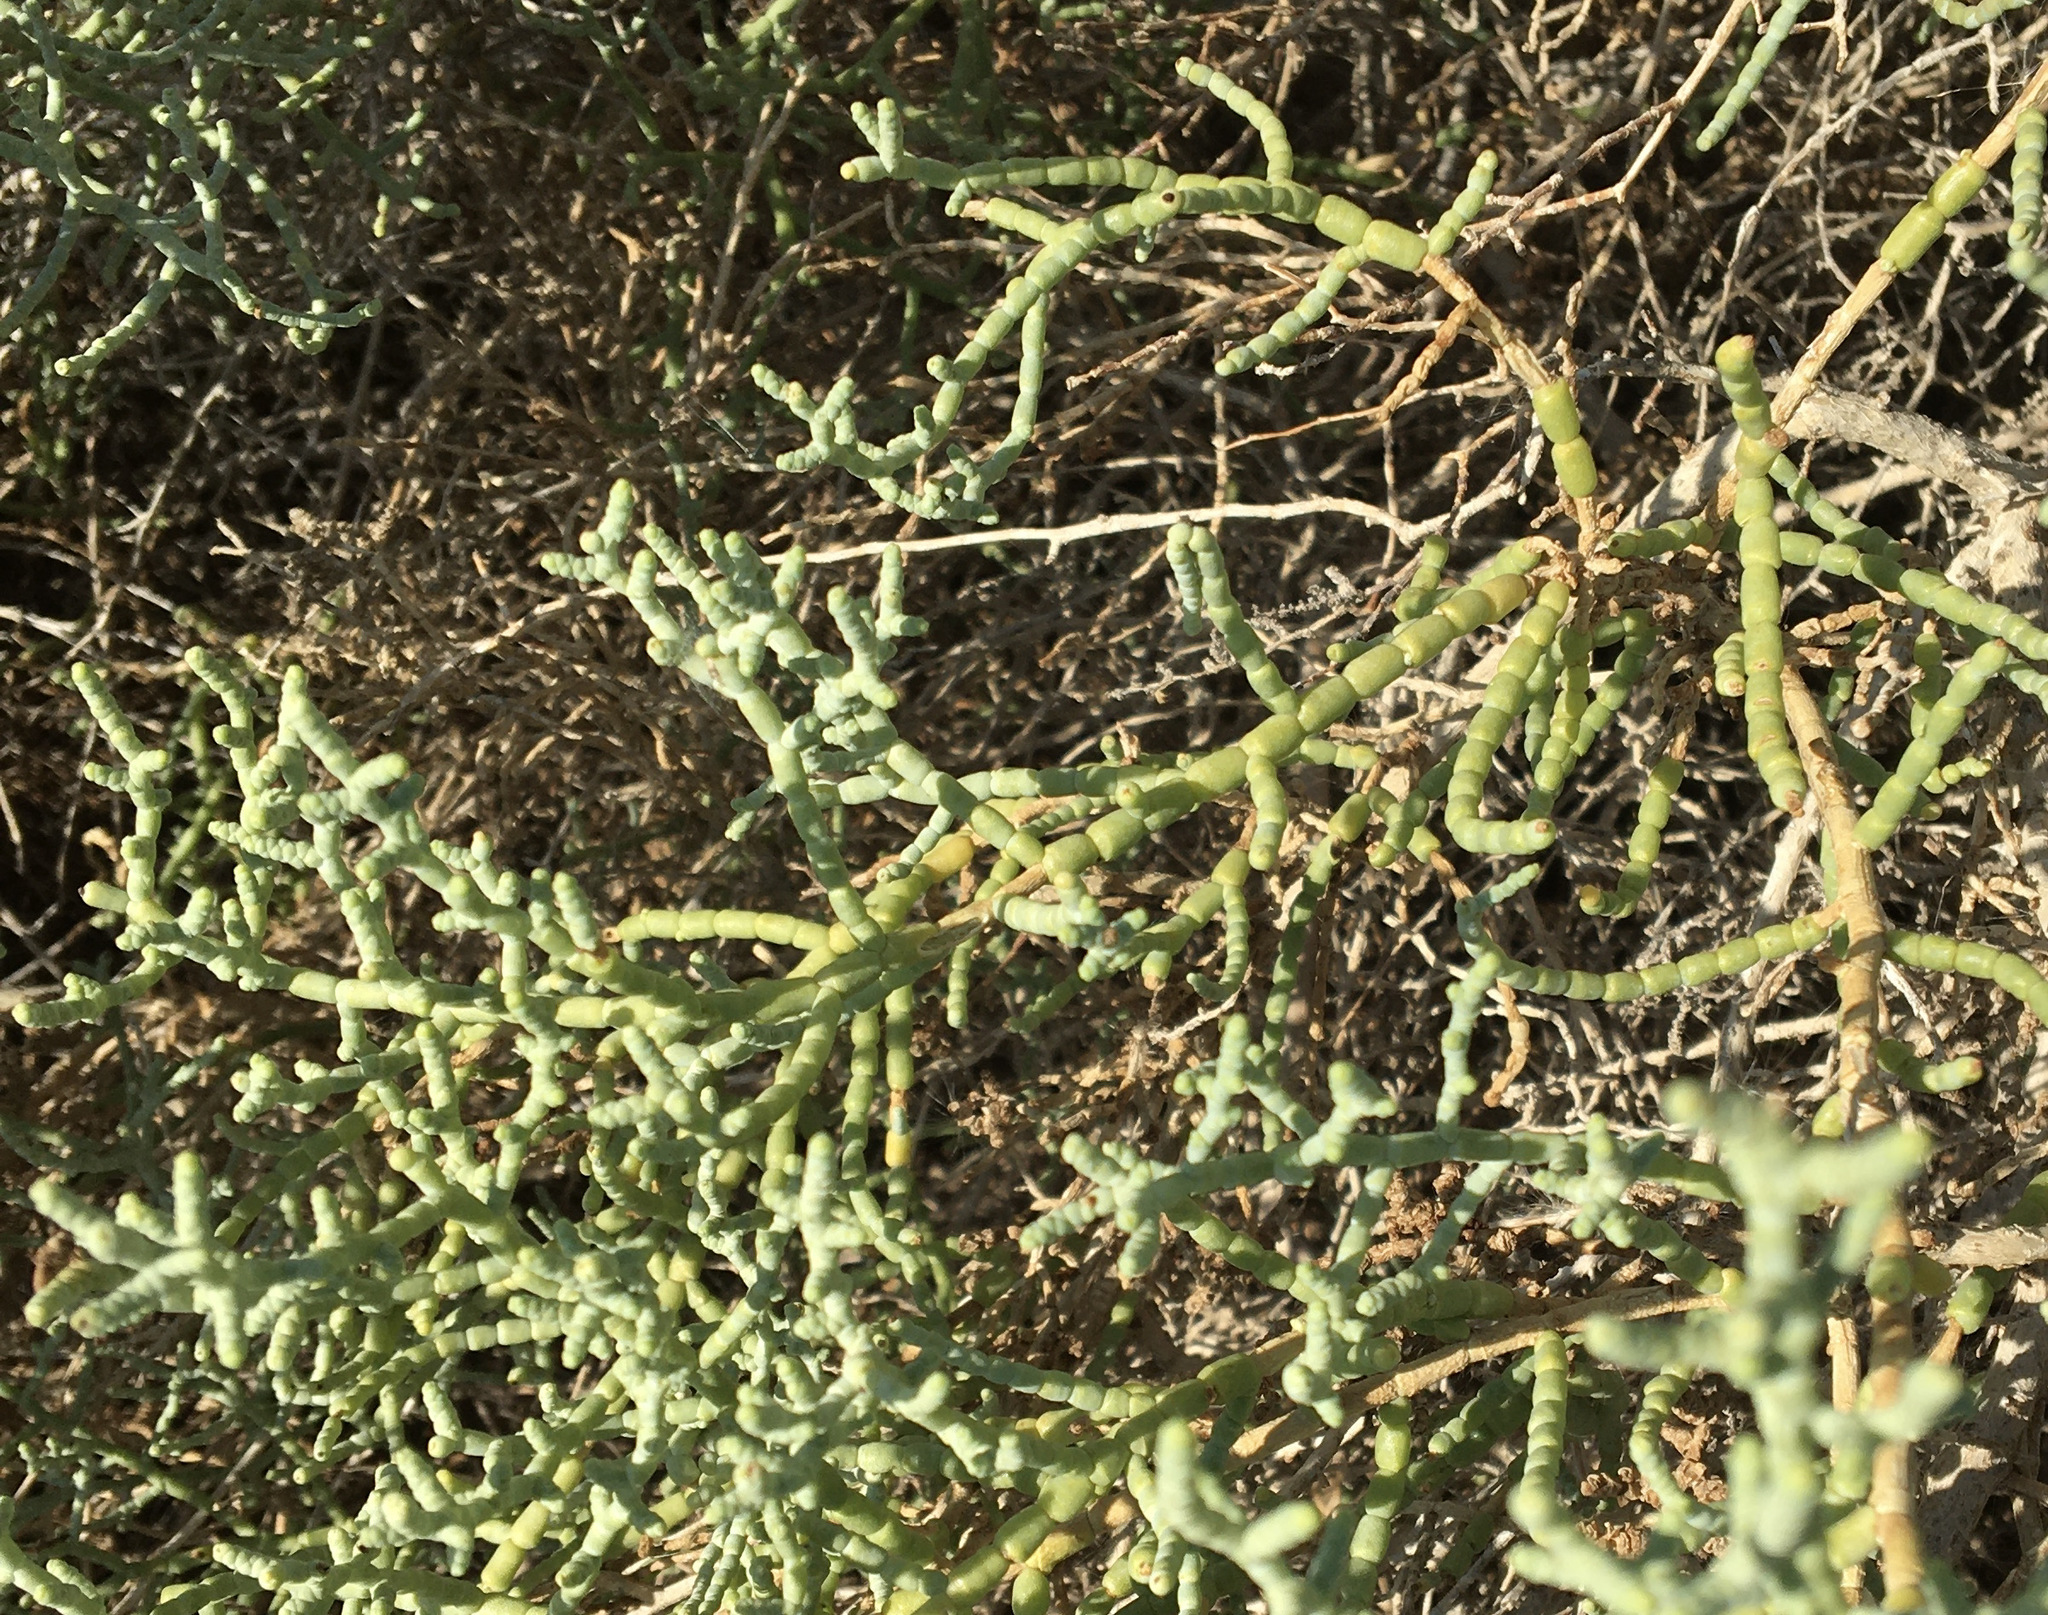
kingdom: Plantae
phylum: Tracheophyta
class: Magnoliopsida
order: Caryophyllales
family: Amaranthaceae
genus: Allenrolfea
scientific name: Allenrolfea occidentalis
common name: Iodine-bush
